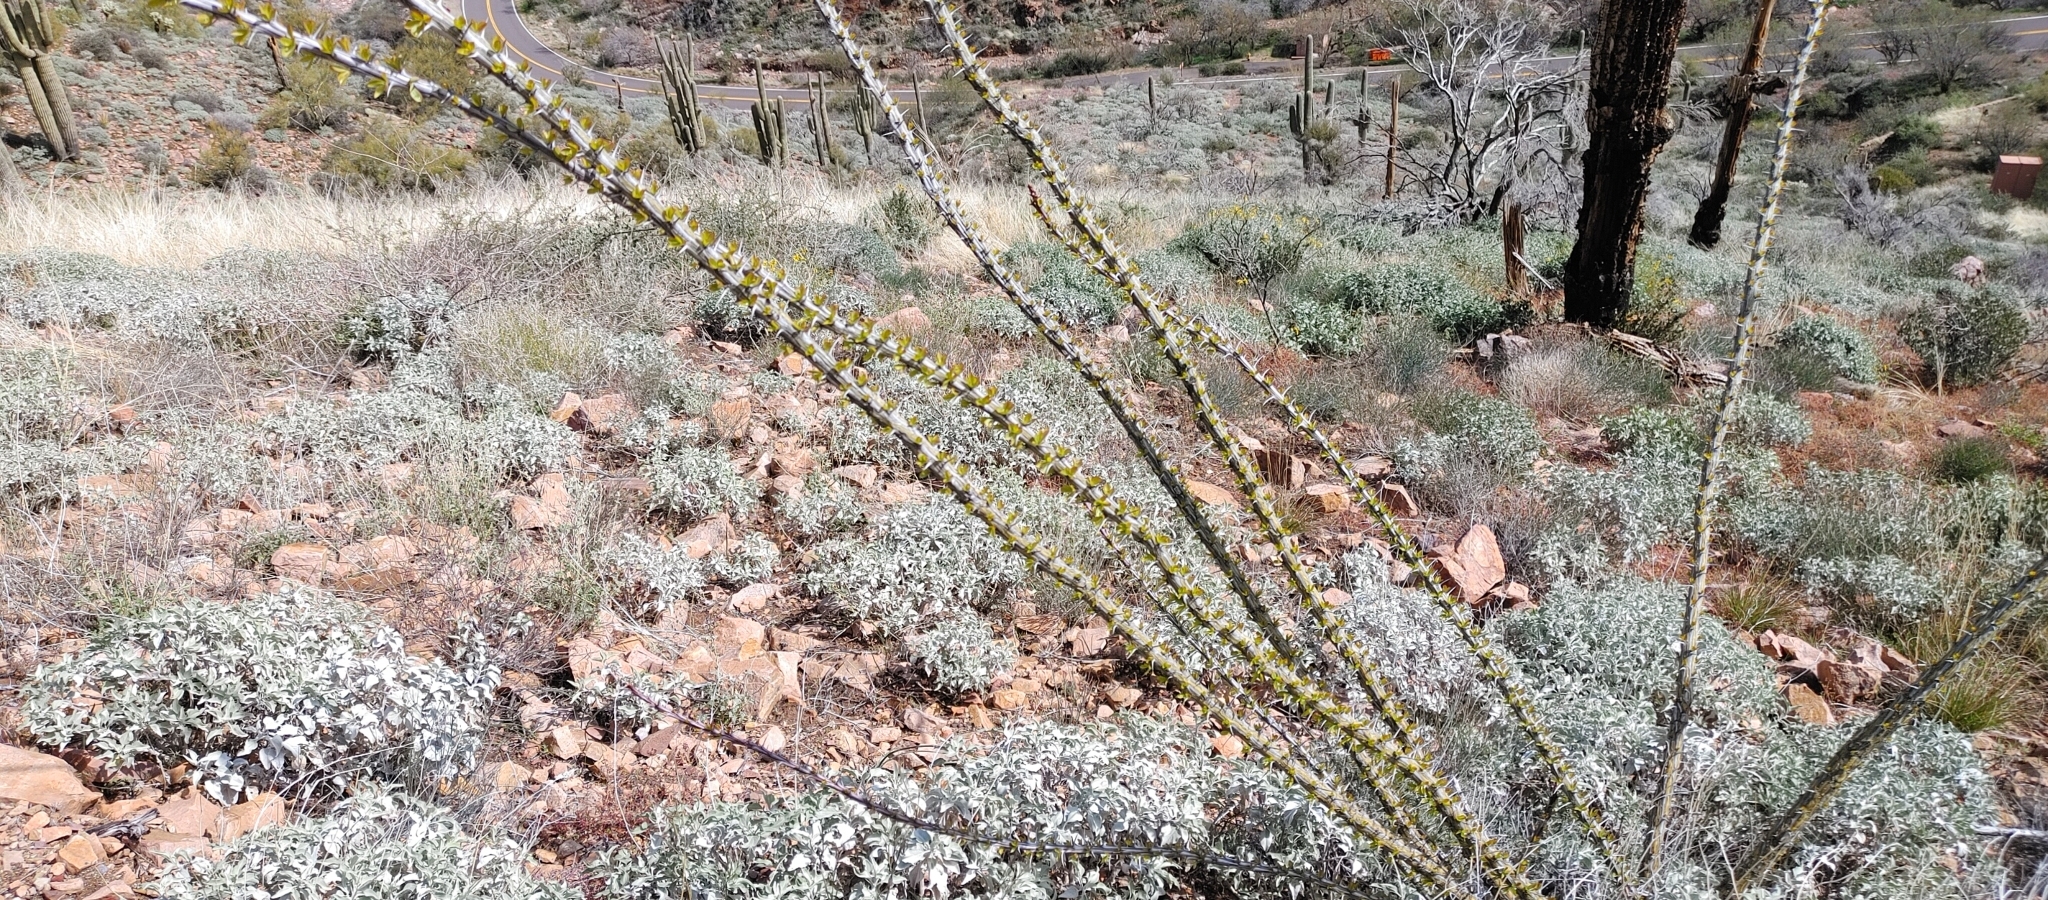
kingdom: Plantae
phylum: Tracheophyta
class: Magnoliopsida
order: Ericales
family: Fouquieriaceae
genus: Fouquieria
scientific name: Fouquieria splendens
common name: Vine-cactus
